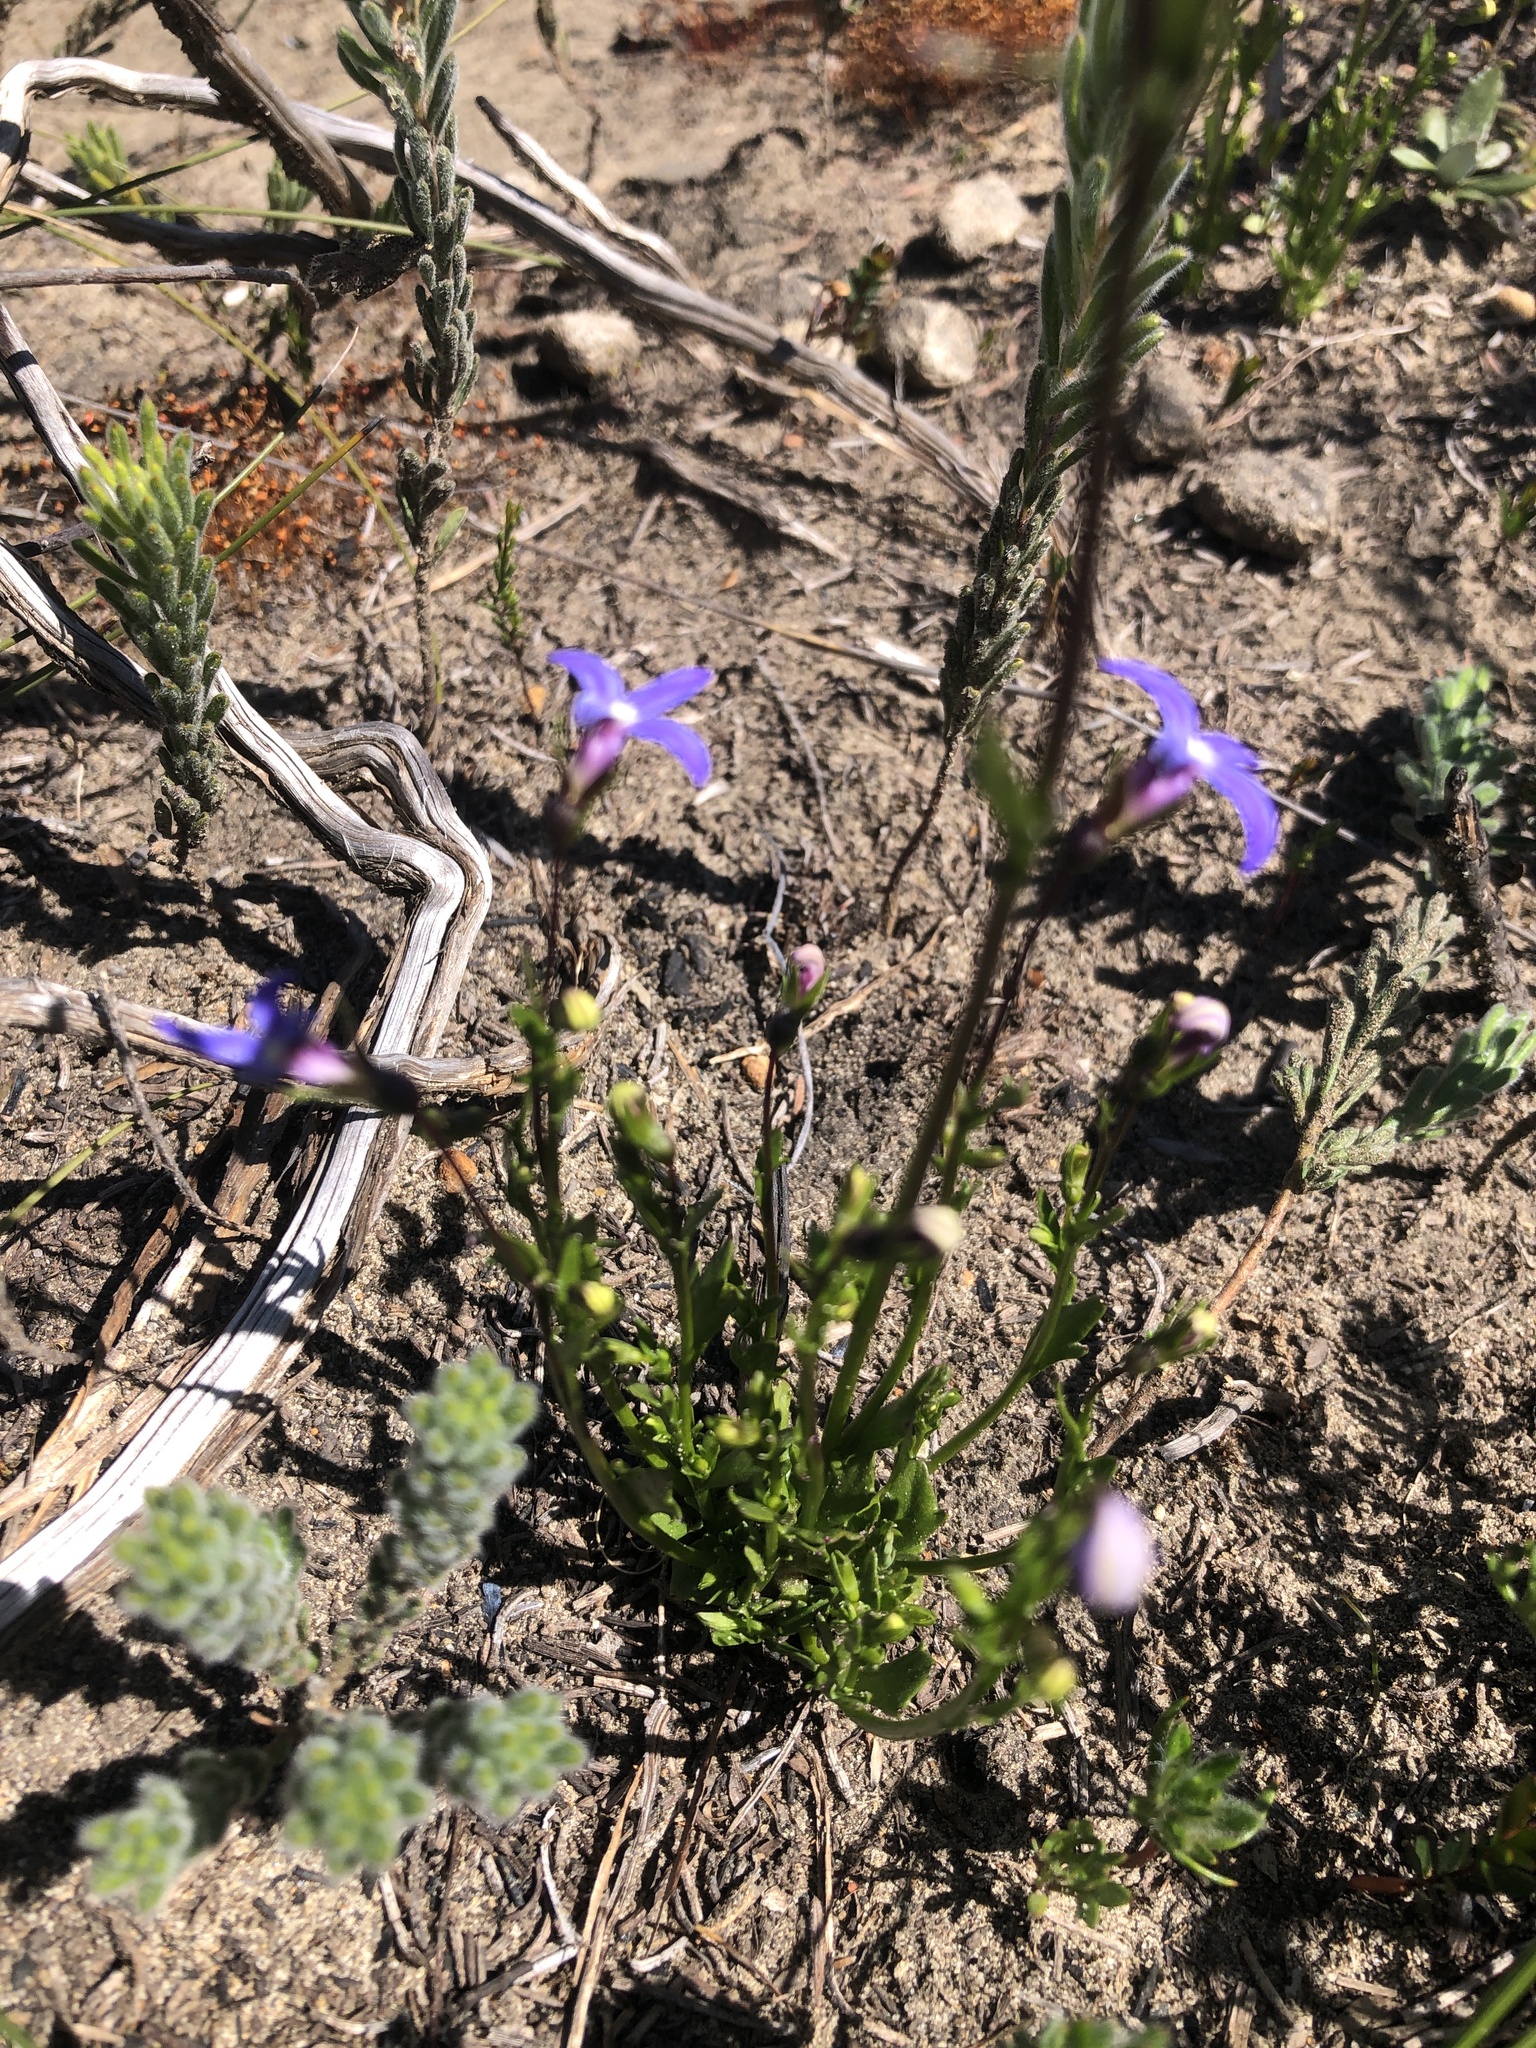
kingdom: Plantae
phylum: Tracheophyta
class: Magnoliopsida
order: Asterales
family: Campanulaceae
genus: Lobelia
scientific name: Lobelia rhombifolia
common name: Tufted lobelia
